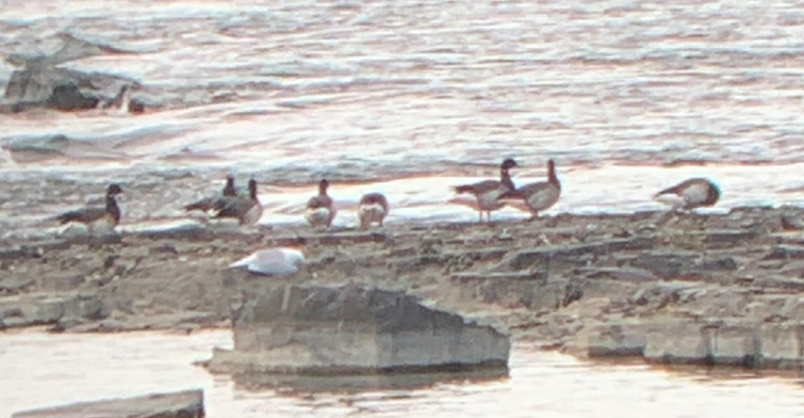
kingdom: Animalia
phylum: Chordata
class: Aves
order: Anseriformes
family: Anatidae
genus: Branta
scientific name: Branta bernicla
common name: Brant goose
